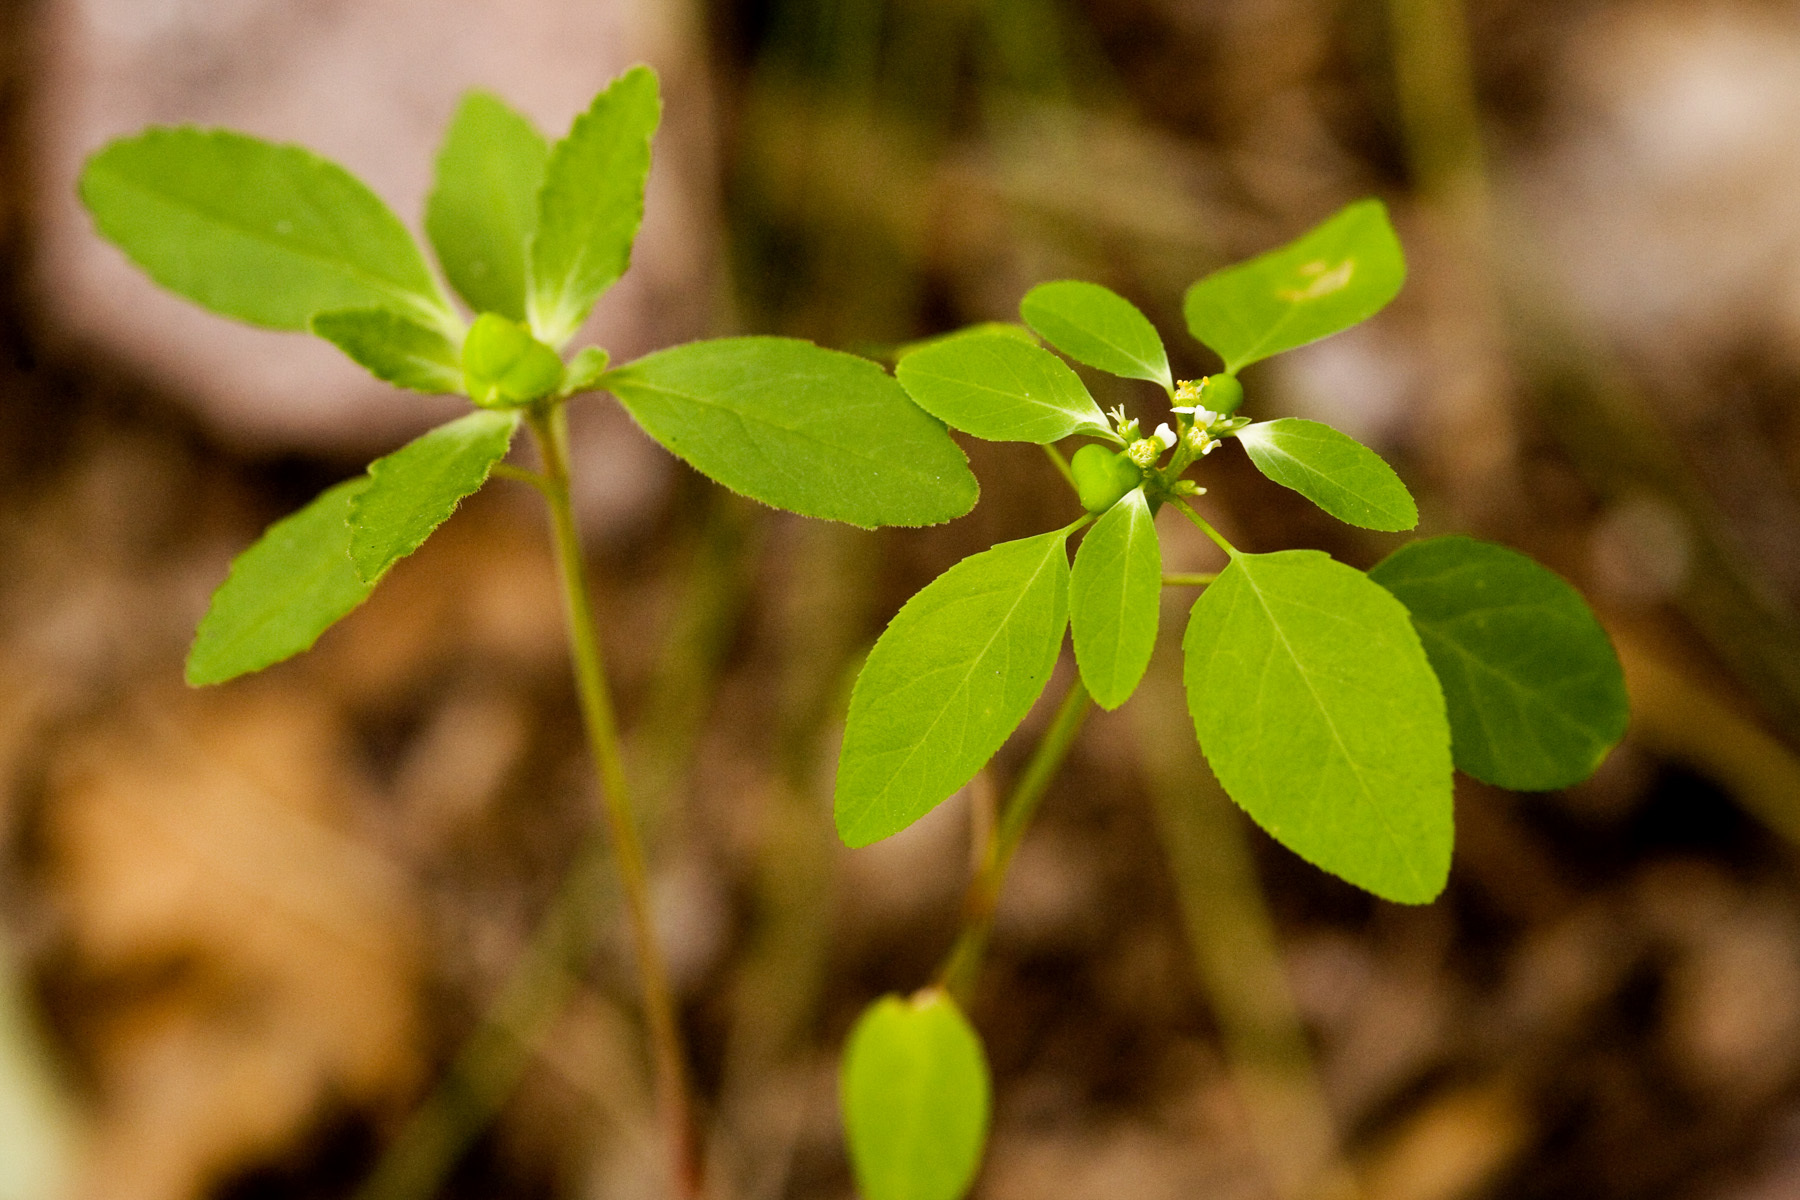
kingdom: Plantae
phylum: Tracheophyta
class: Magnoliopsida
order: Malpighiales
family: Euphorbiaceae
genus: Euphorbia
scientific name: Euphorbia bifurcata
